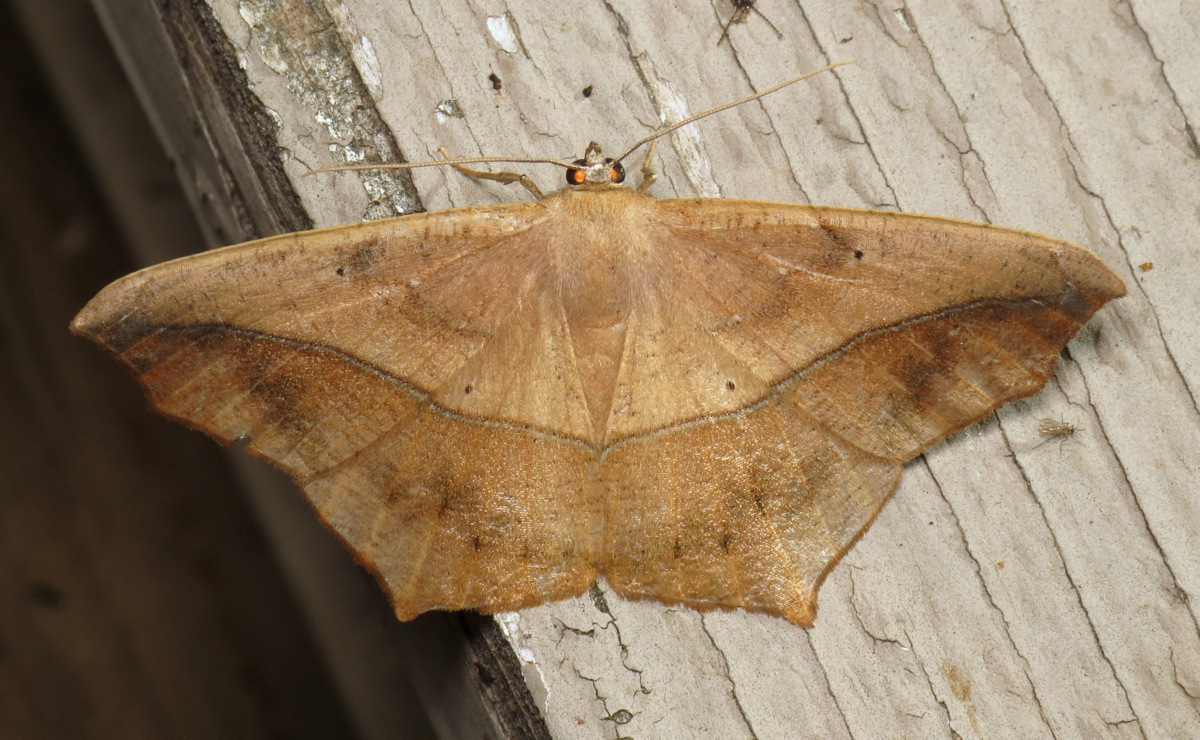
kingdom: Animalia
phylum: Arthropoda
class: Insecta
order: Lepidoptera
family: Geometridae
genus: Prochoerodes
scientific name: Prochoerodes lineola
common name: Large maple spanworm
